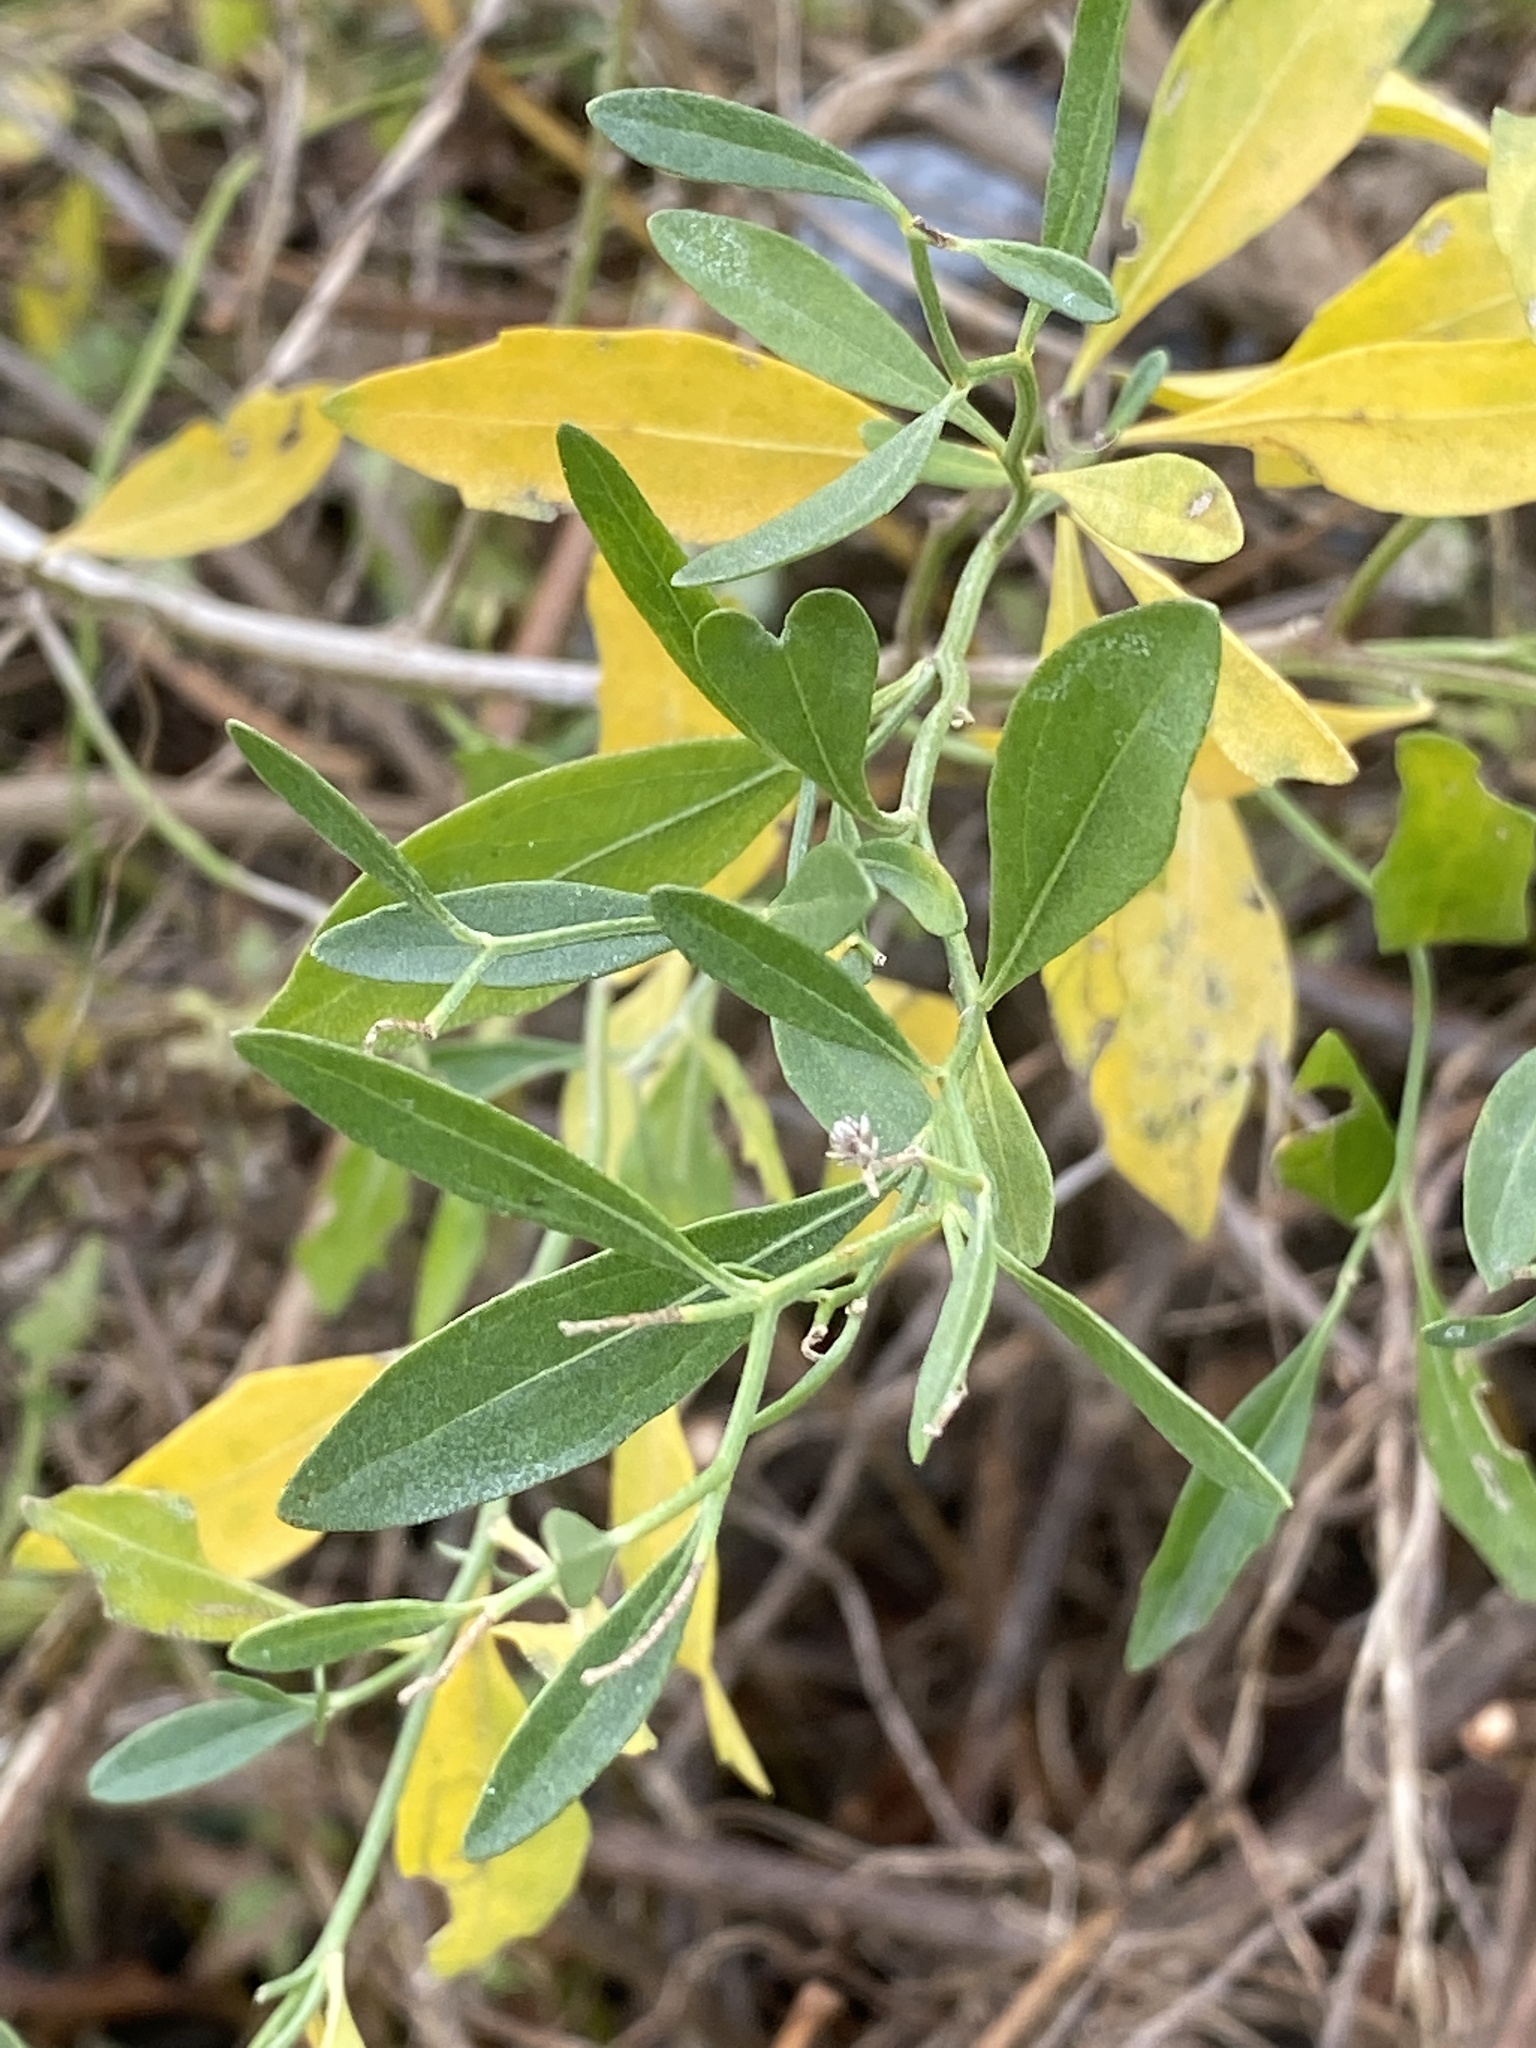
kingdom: Plantae
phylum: Tracheophyta
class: Magnoliopsida
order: Asterales
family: Asteraceae
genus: Baccharis
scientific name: Baccharis halimifolia
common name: Eastern baccharis
